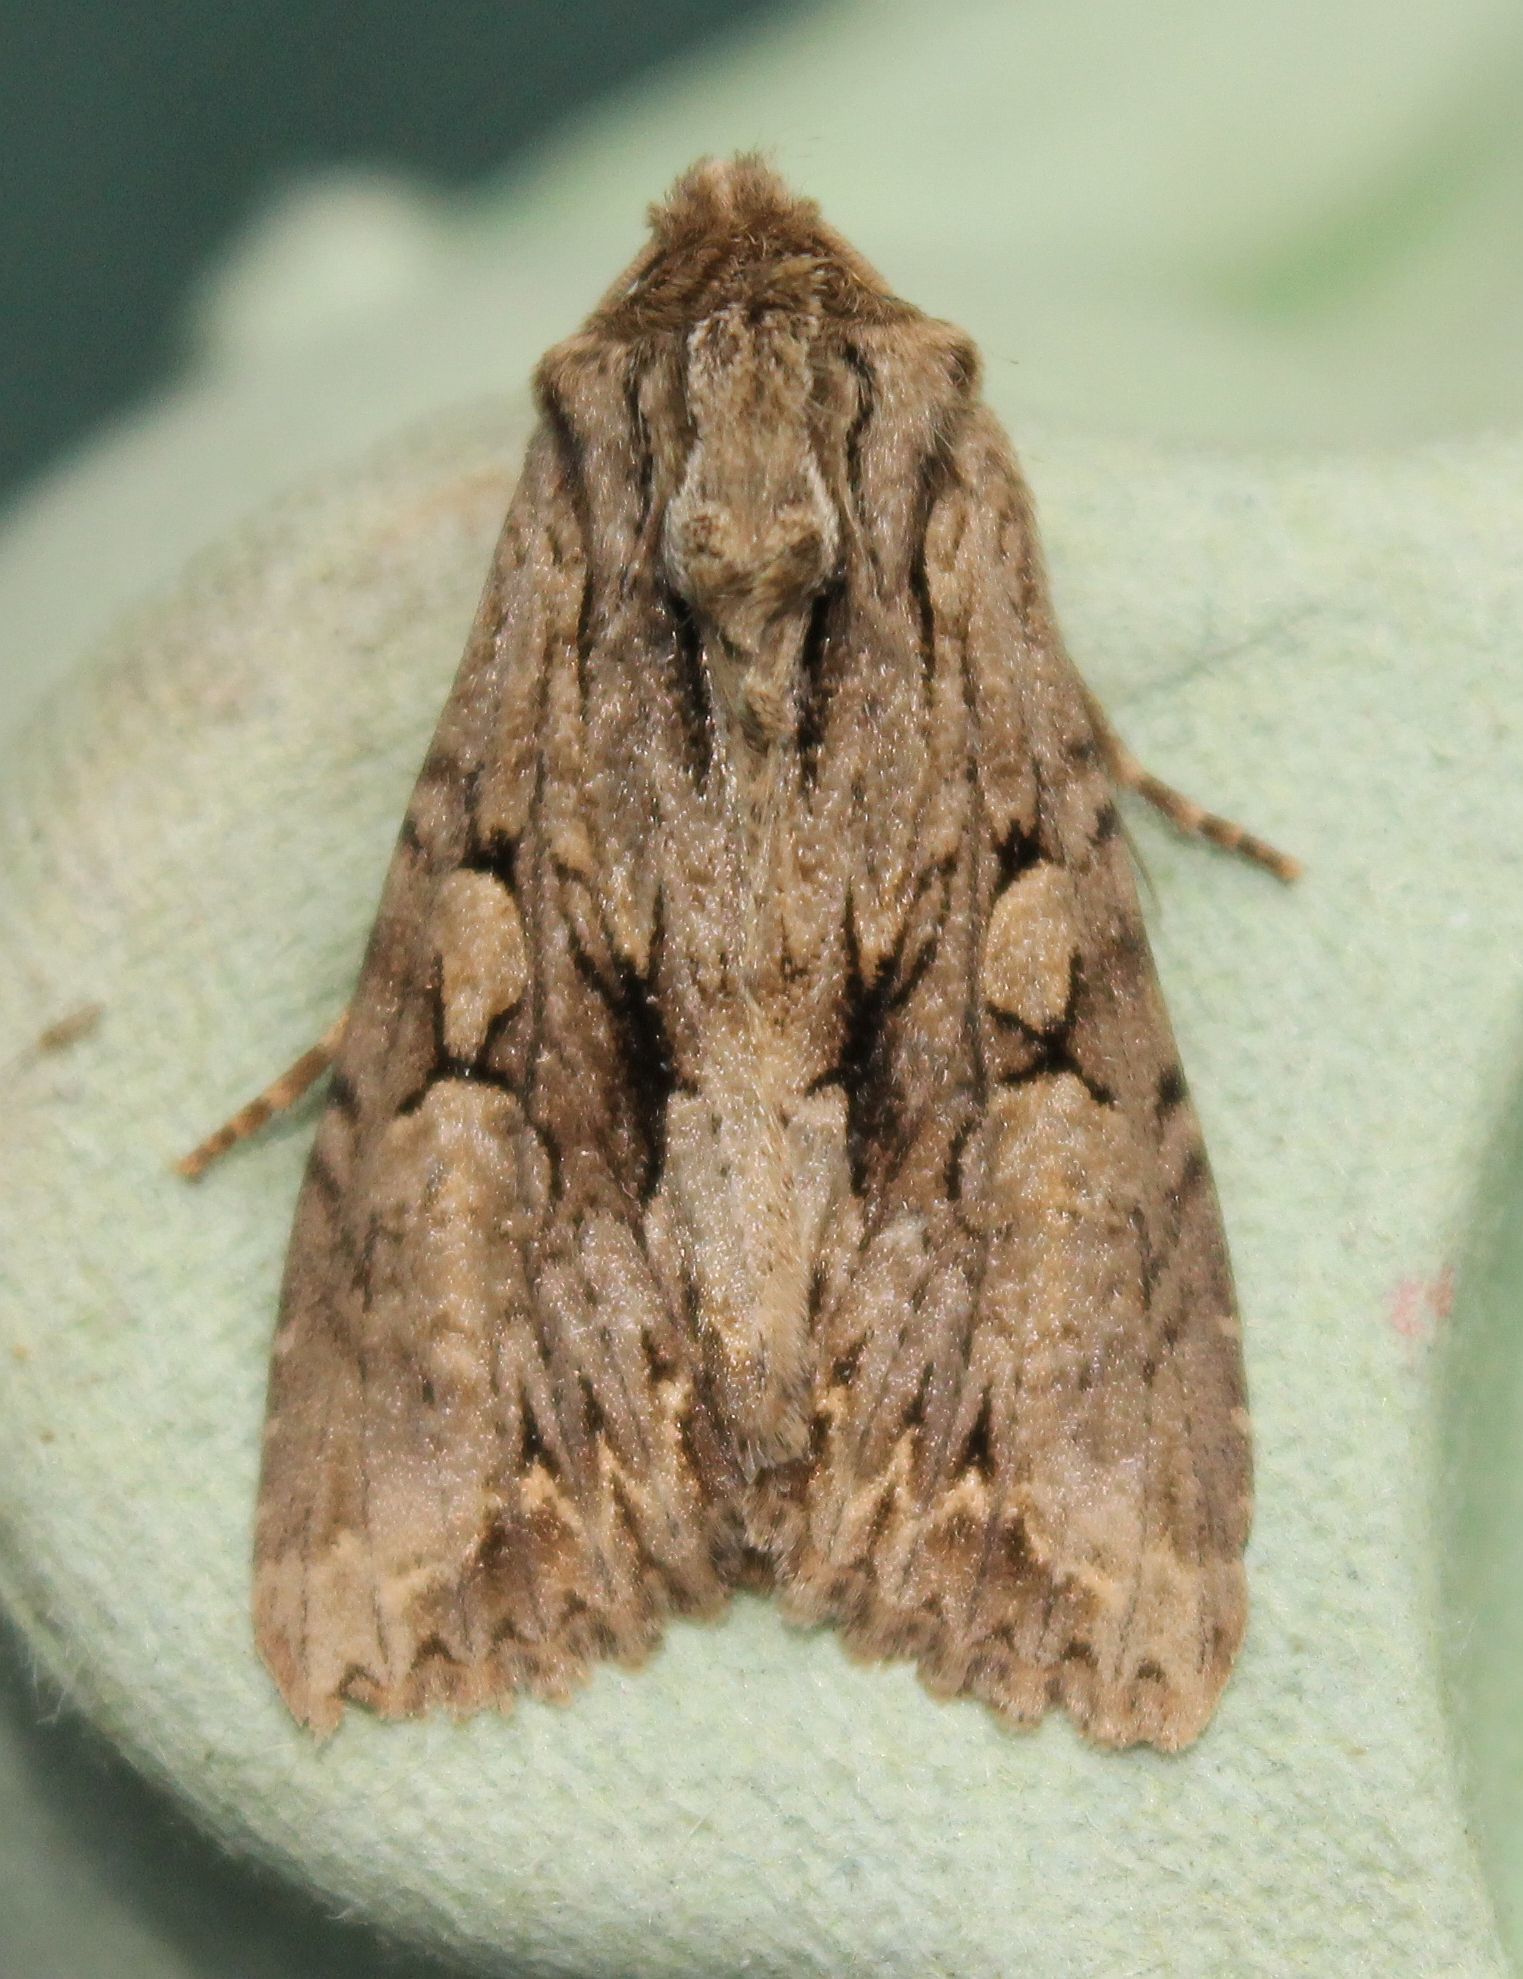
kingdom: Animalia
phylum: Arthropoda
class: Insecta
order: Lepidoptera
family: Noctuidae
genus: Apamea
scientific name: Apamea monoglypha
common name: Dark arches
